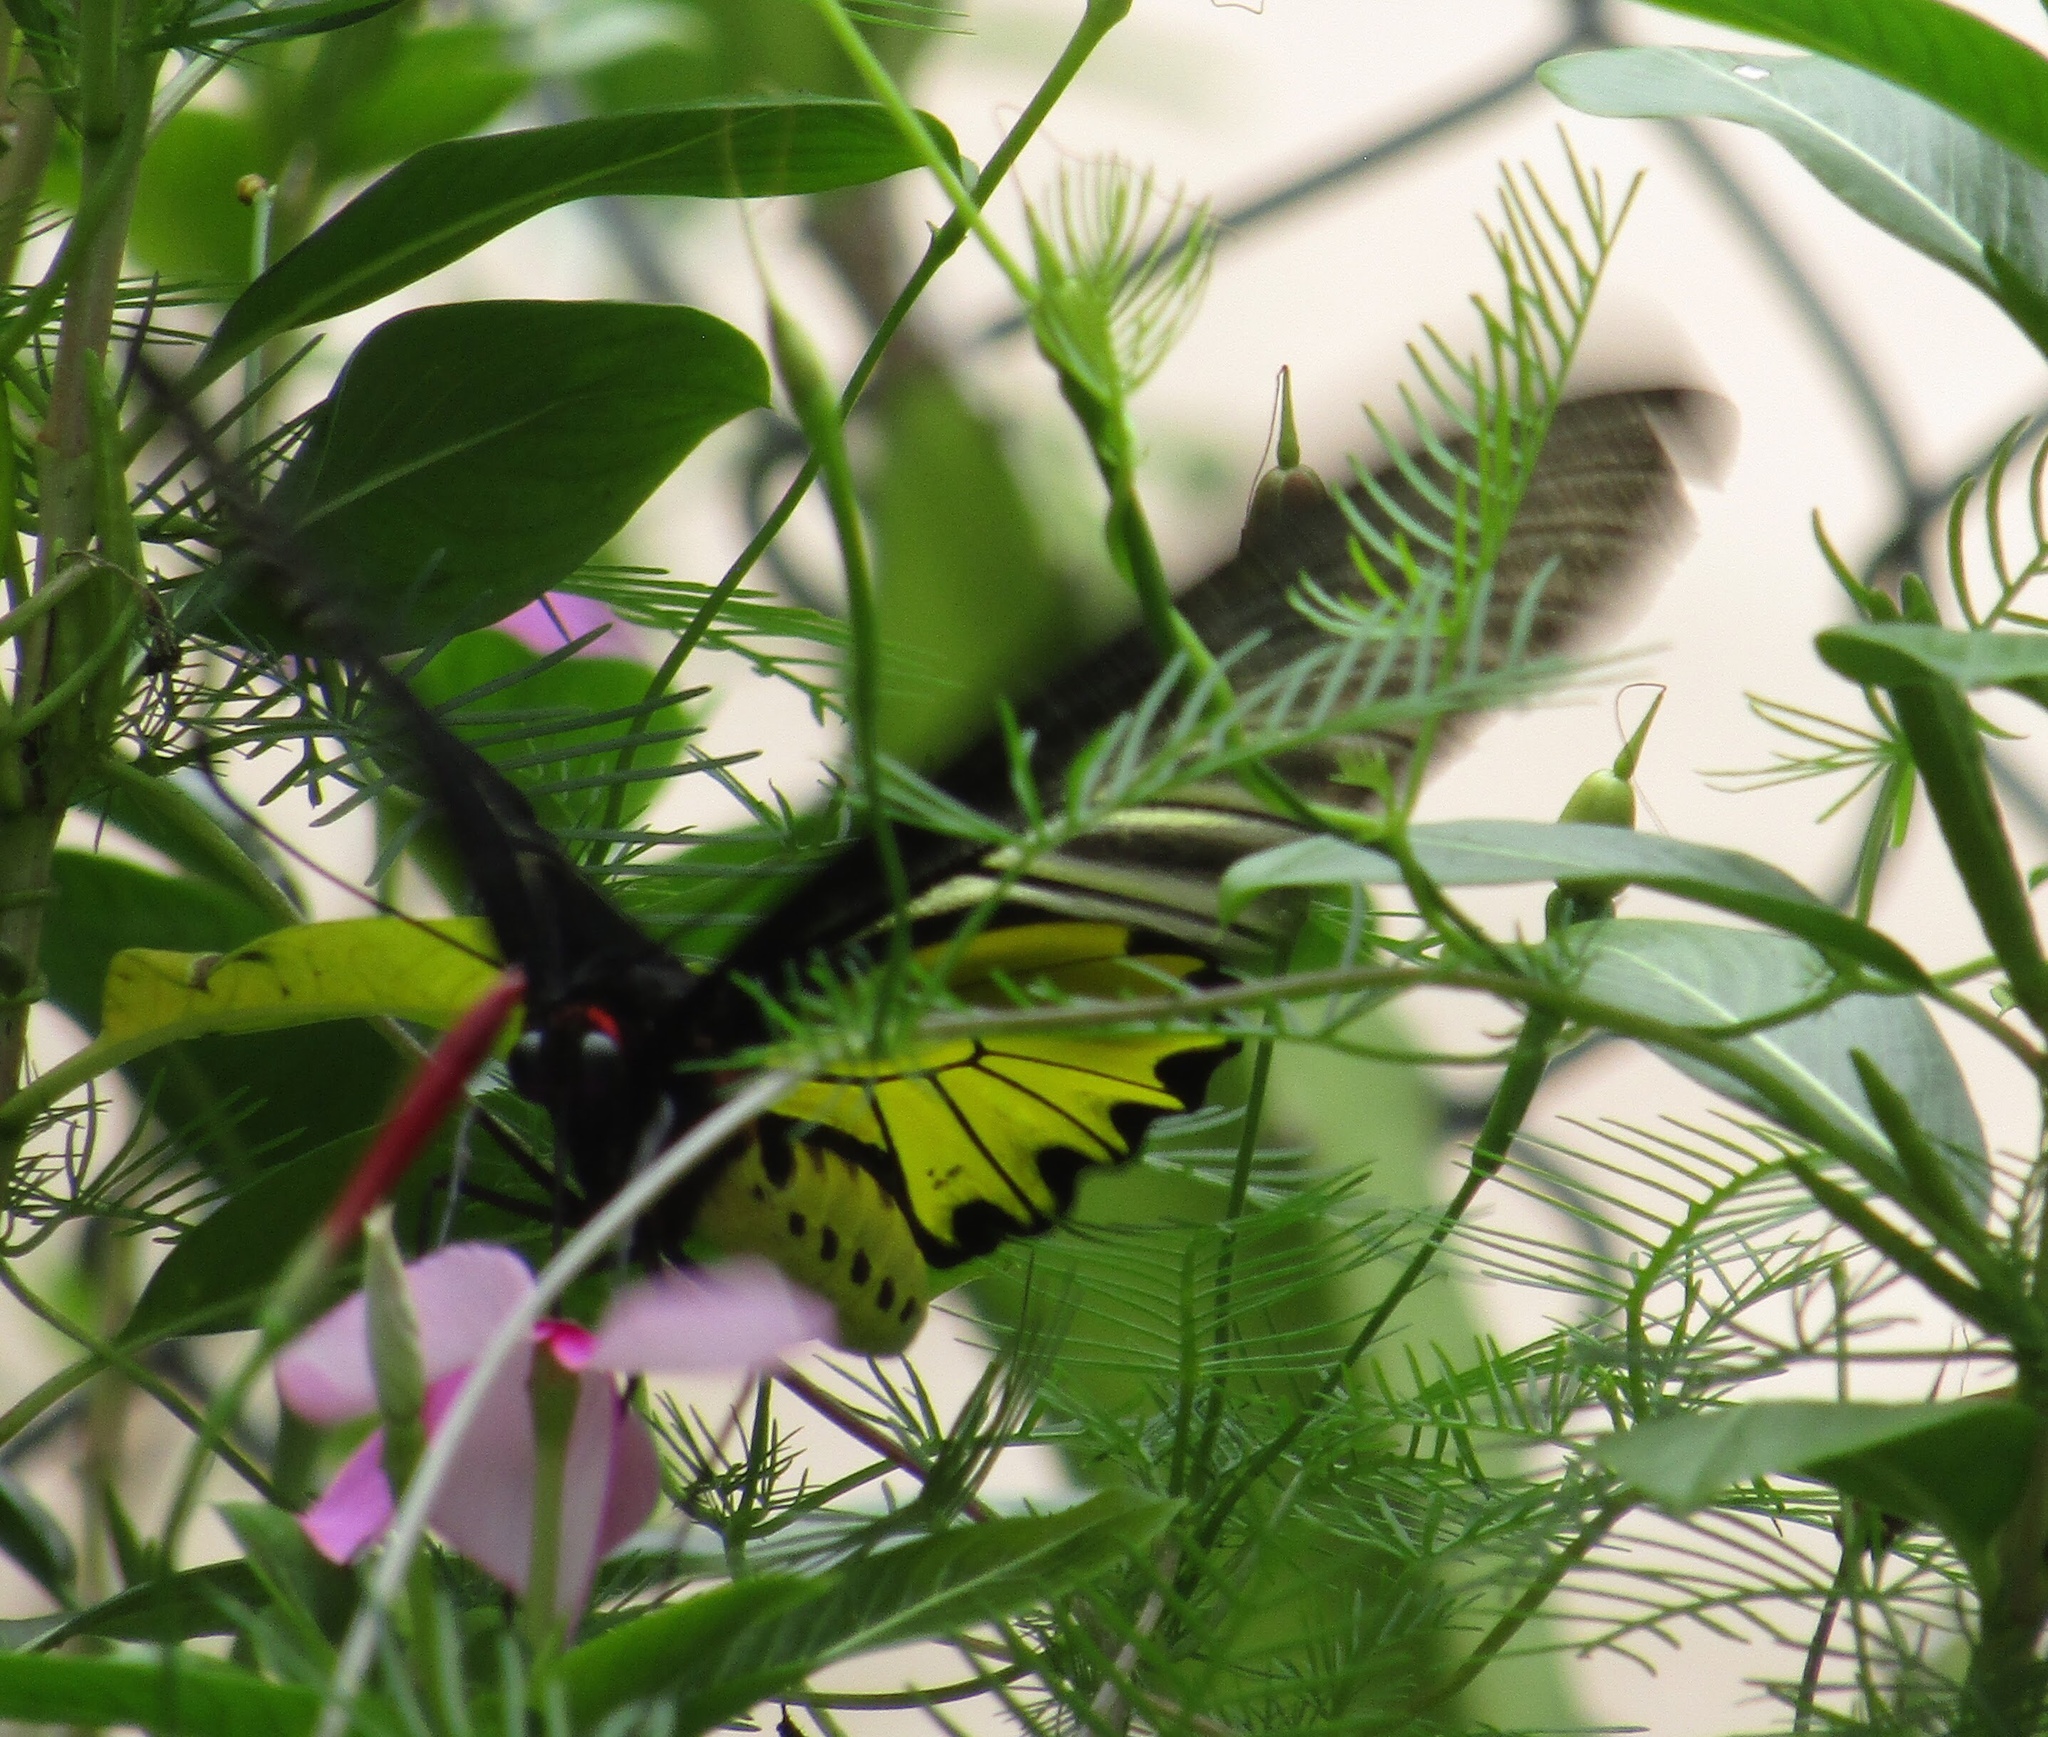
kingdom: Animalia
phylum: Arthropoda
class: Insecta
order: Lepidoptera
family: Papilionidae
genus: Troides
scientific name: Troides aeacus
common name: Golden birdwing
